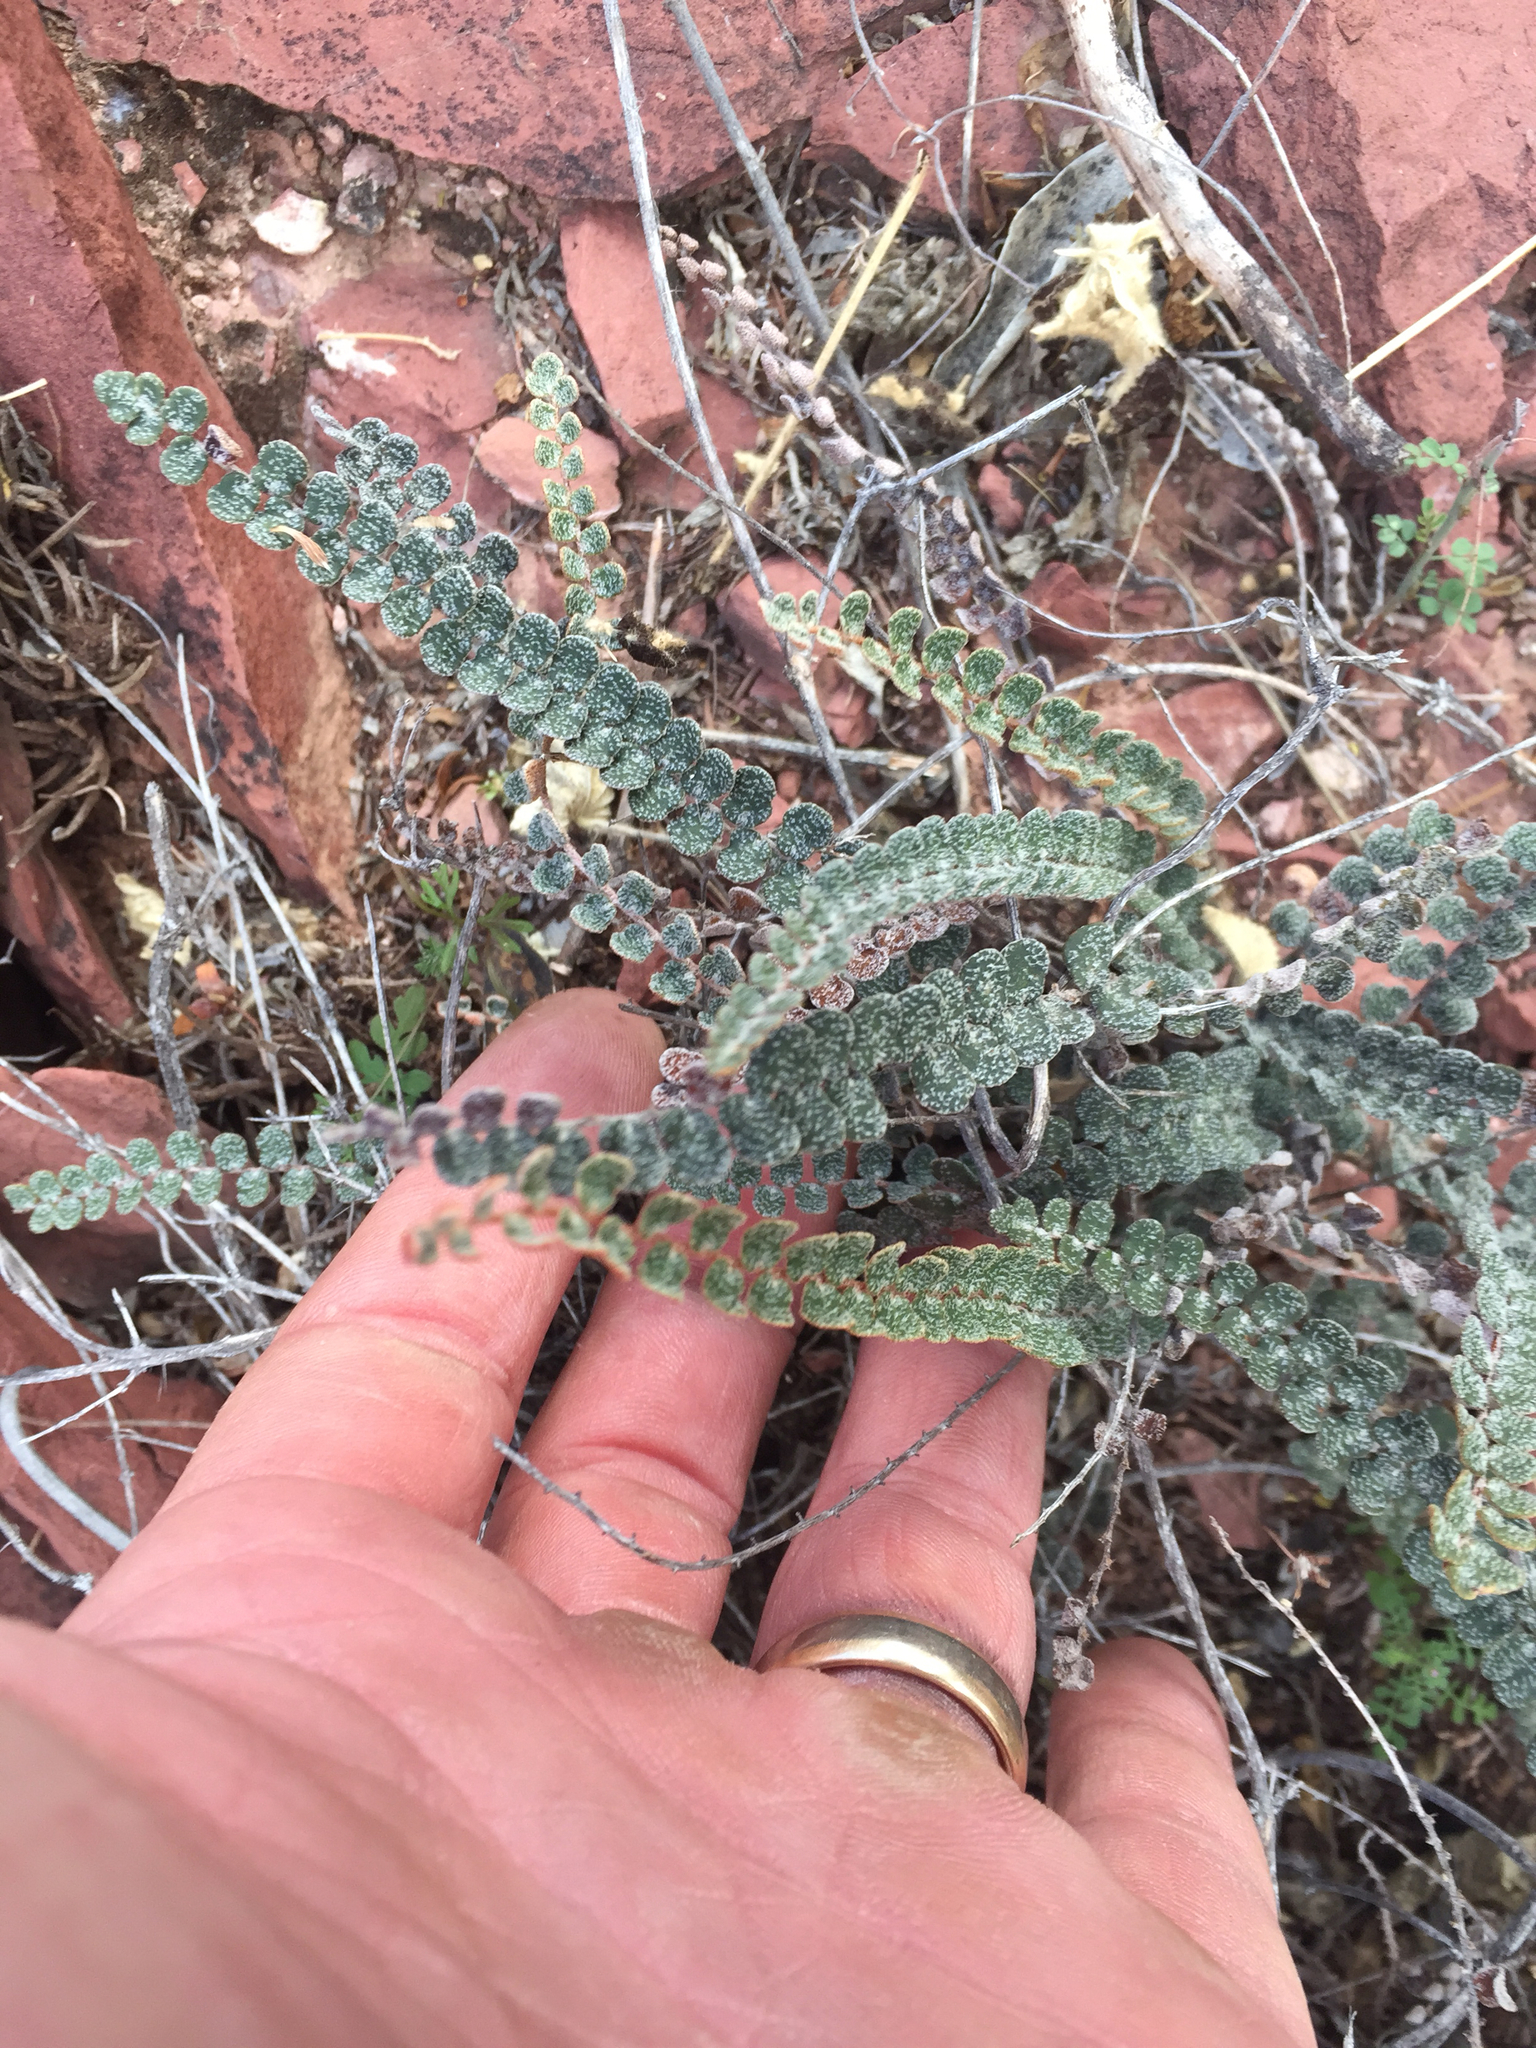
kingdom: Plantae
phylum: Tracheophyta
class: Polypodiopsida
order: Polypodiales
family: Pteridaceae
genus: Astrolepis
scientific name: Astrolepis cochisensis
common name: Scaly cloak fern
